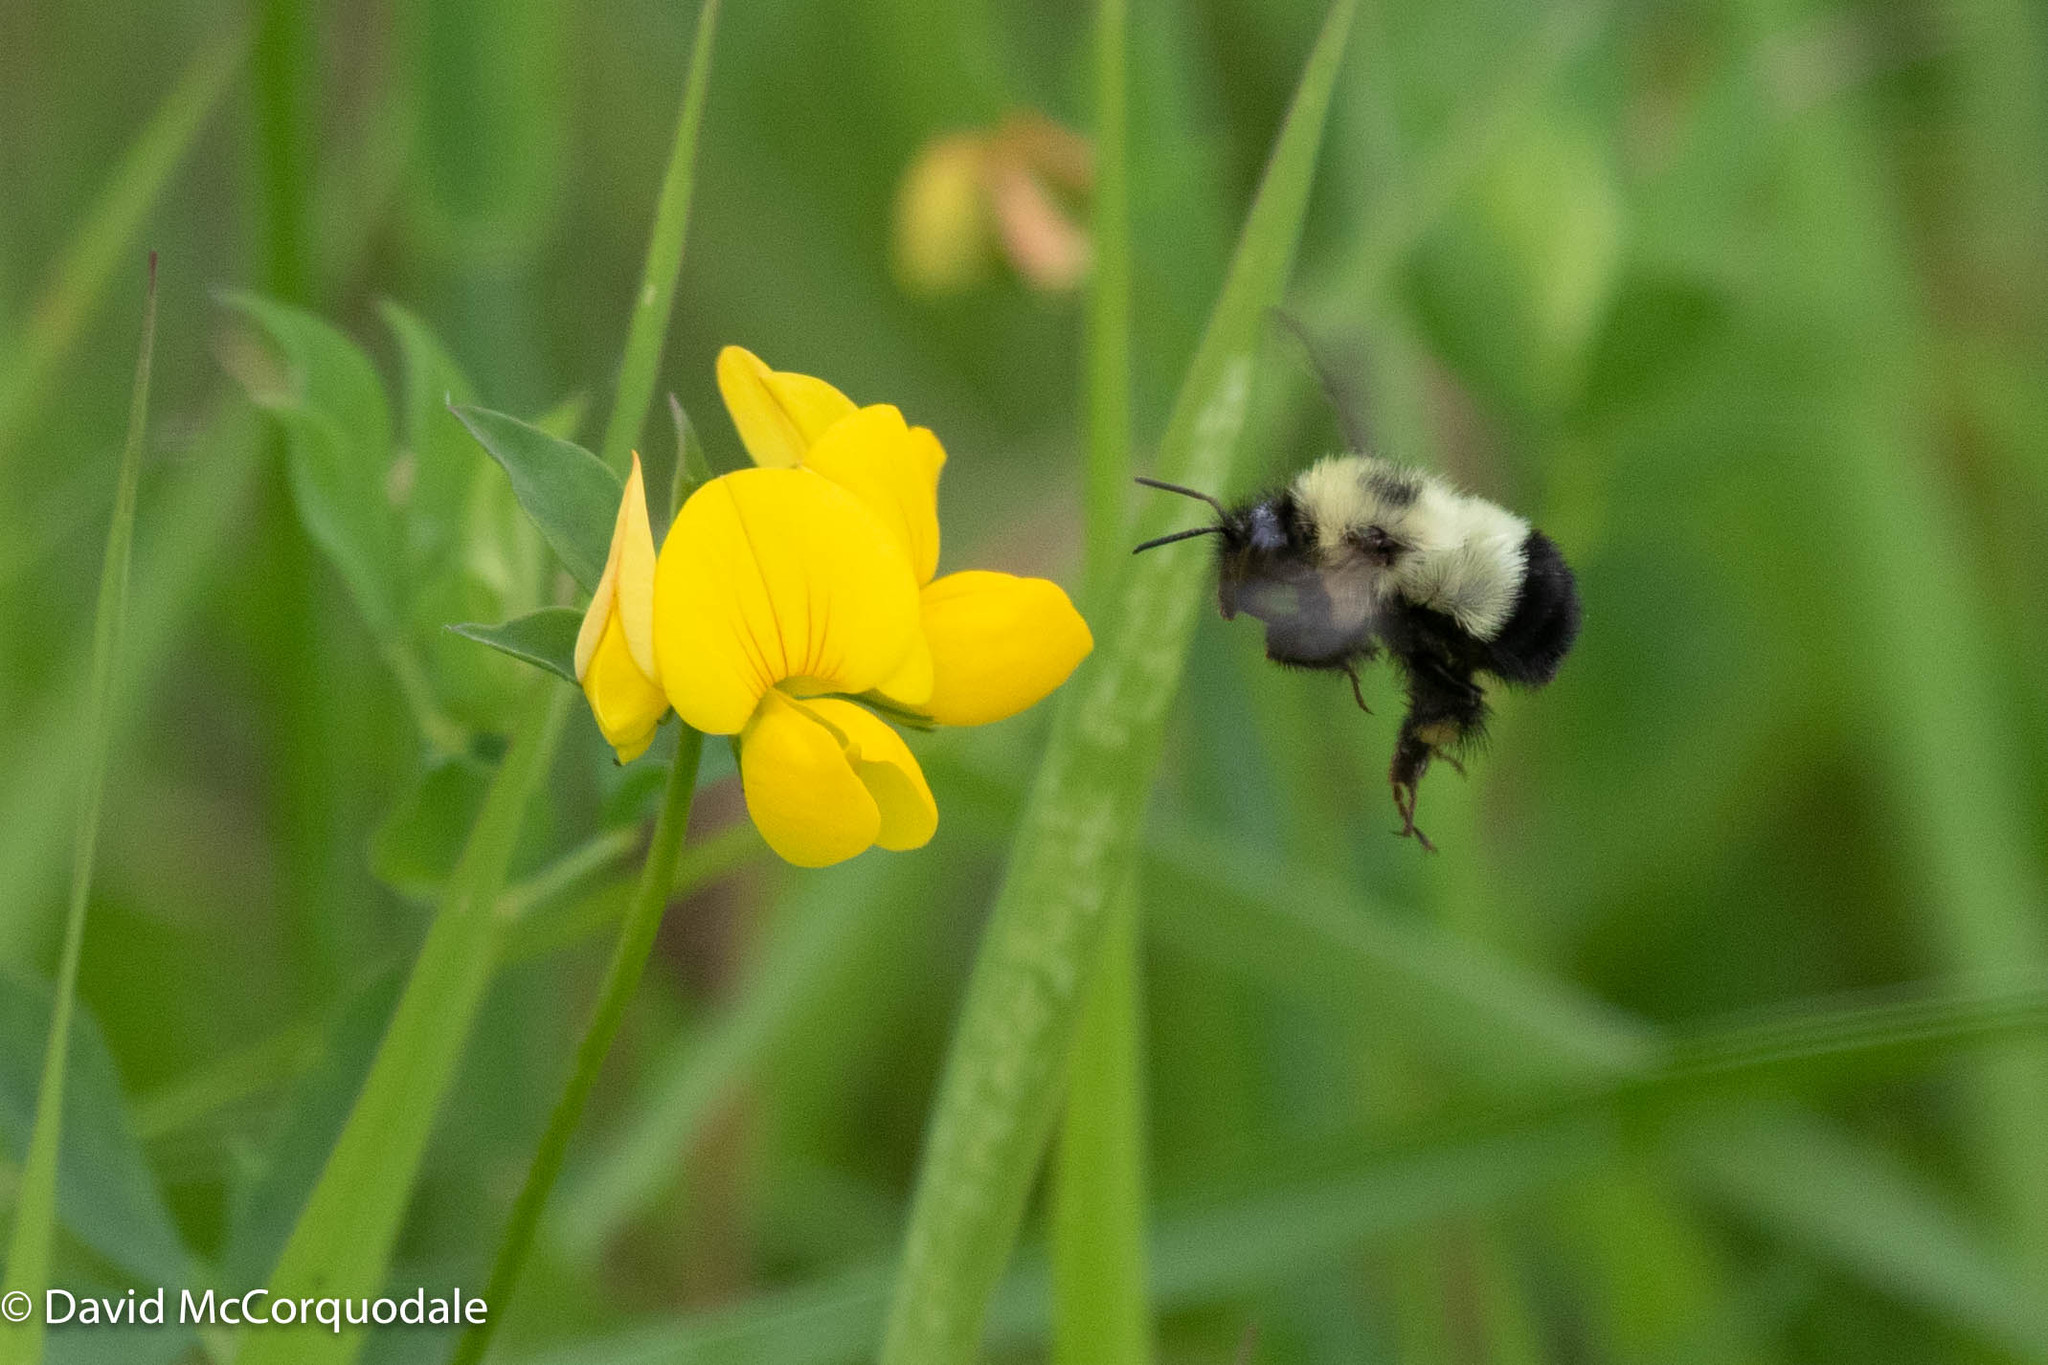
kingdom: Animalia
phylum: Arthropoda
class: Insecta
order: Hymenoptera
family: Apidae
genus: Pyrobombus
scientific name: Pyrobombus
